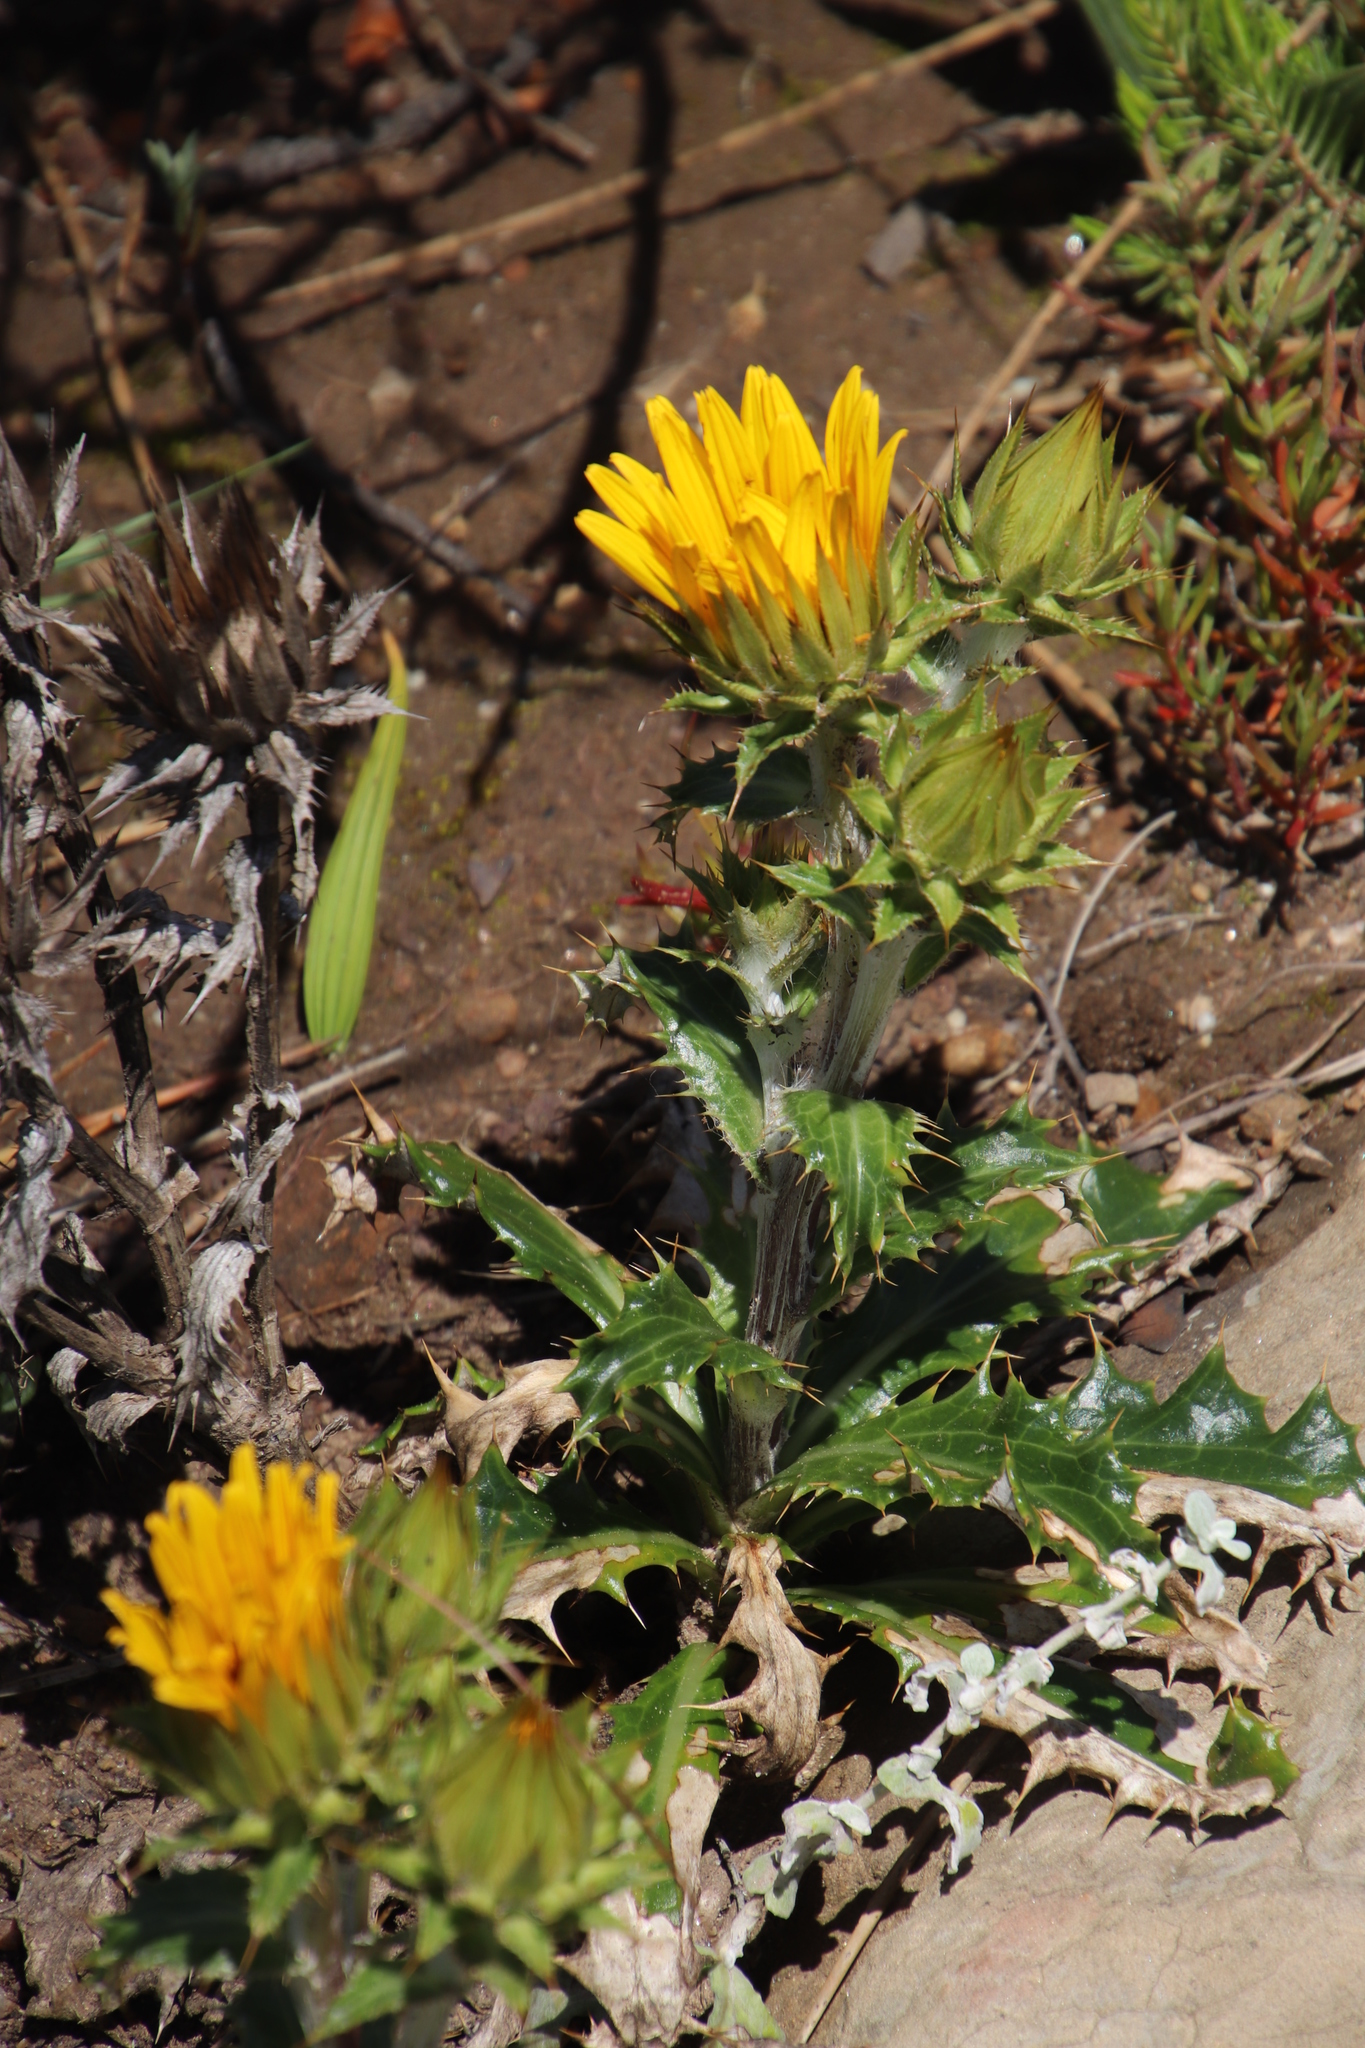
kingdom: Plantae
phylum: Tracheophyta
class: Magnoliopsida
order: Asterales
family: Asteraceae
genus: Berkheya
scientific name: Berkheya armata
